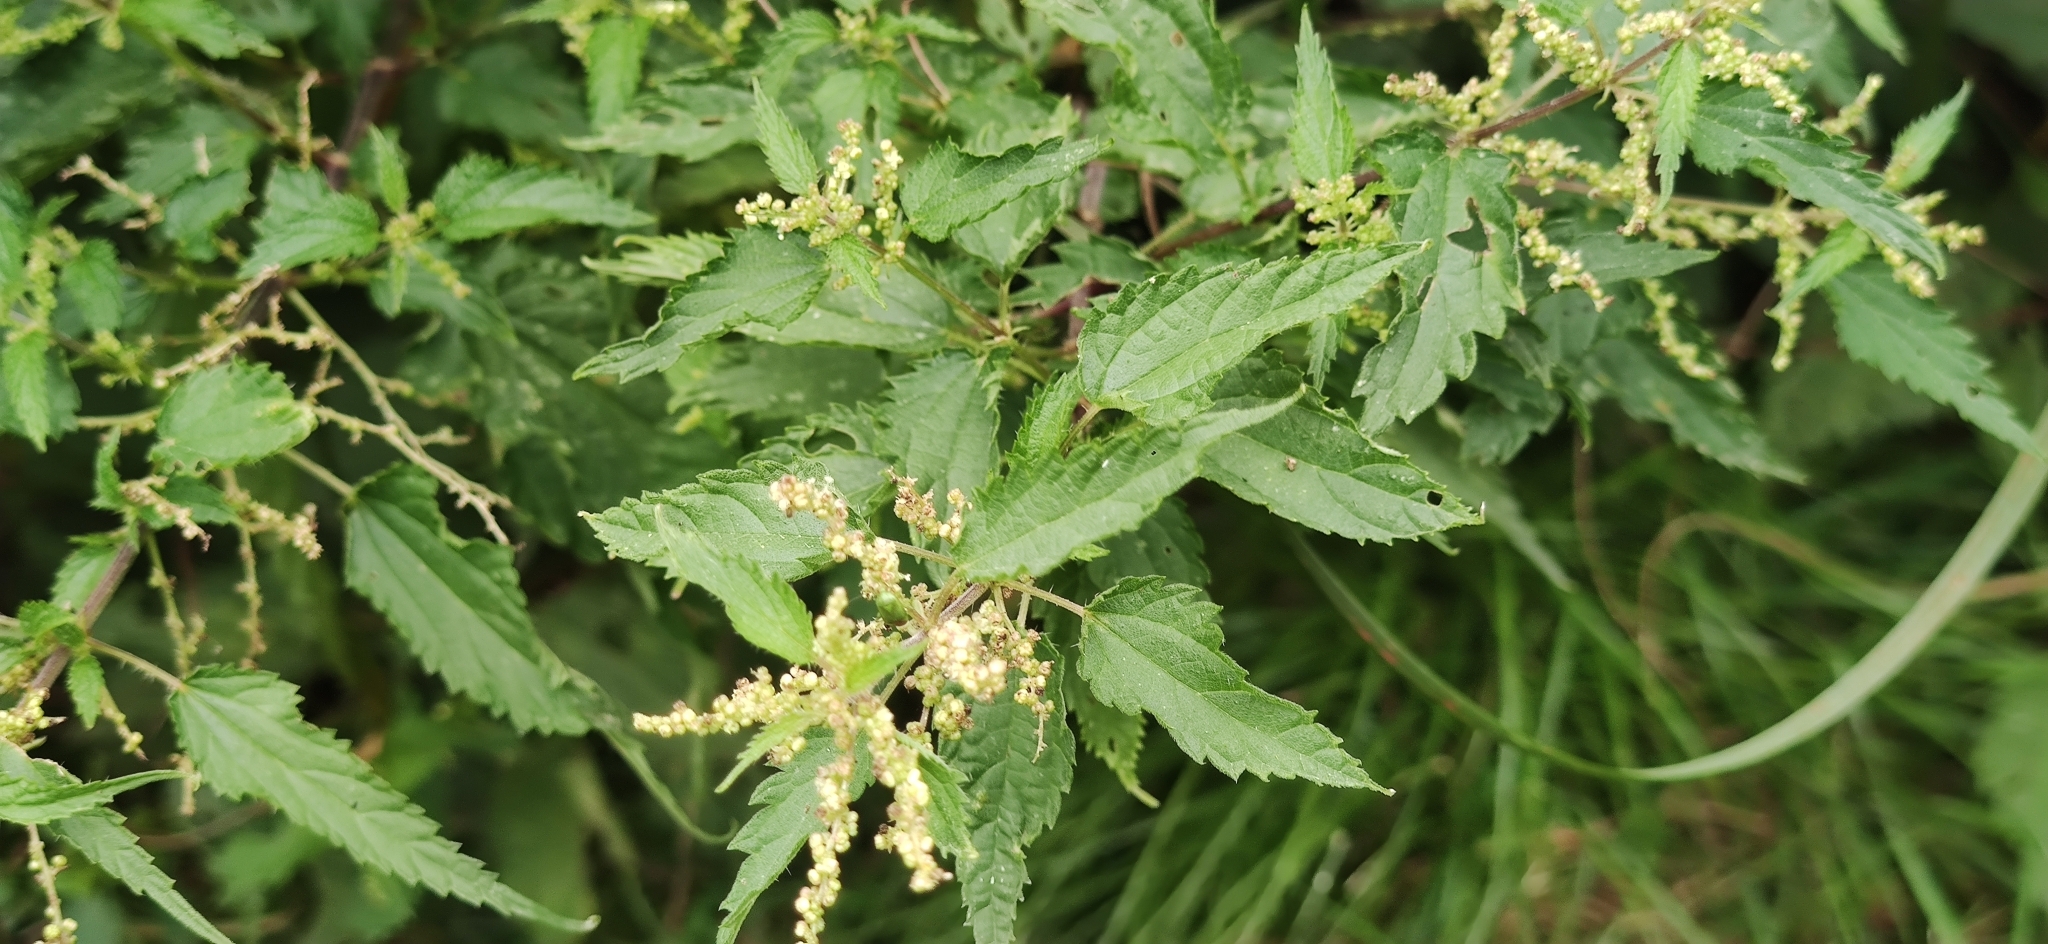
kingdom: Plantae
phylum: Tracheophyta
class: Magnoliopsida
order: Rosales
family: Urticaceae
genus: Urtica
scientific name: Urtica dioica
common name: Common nettle
